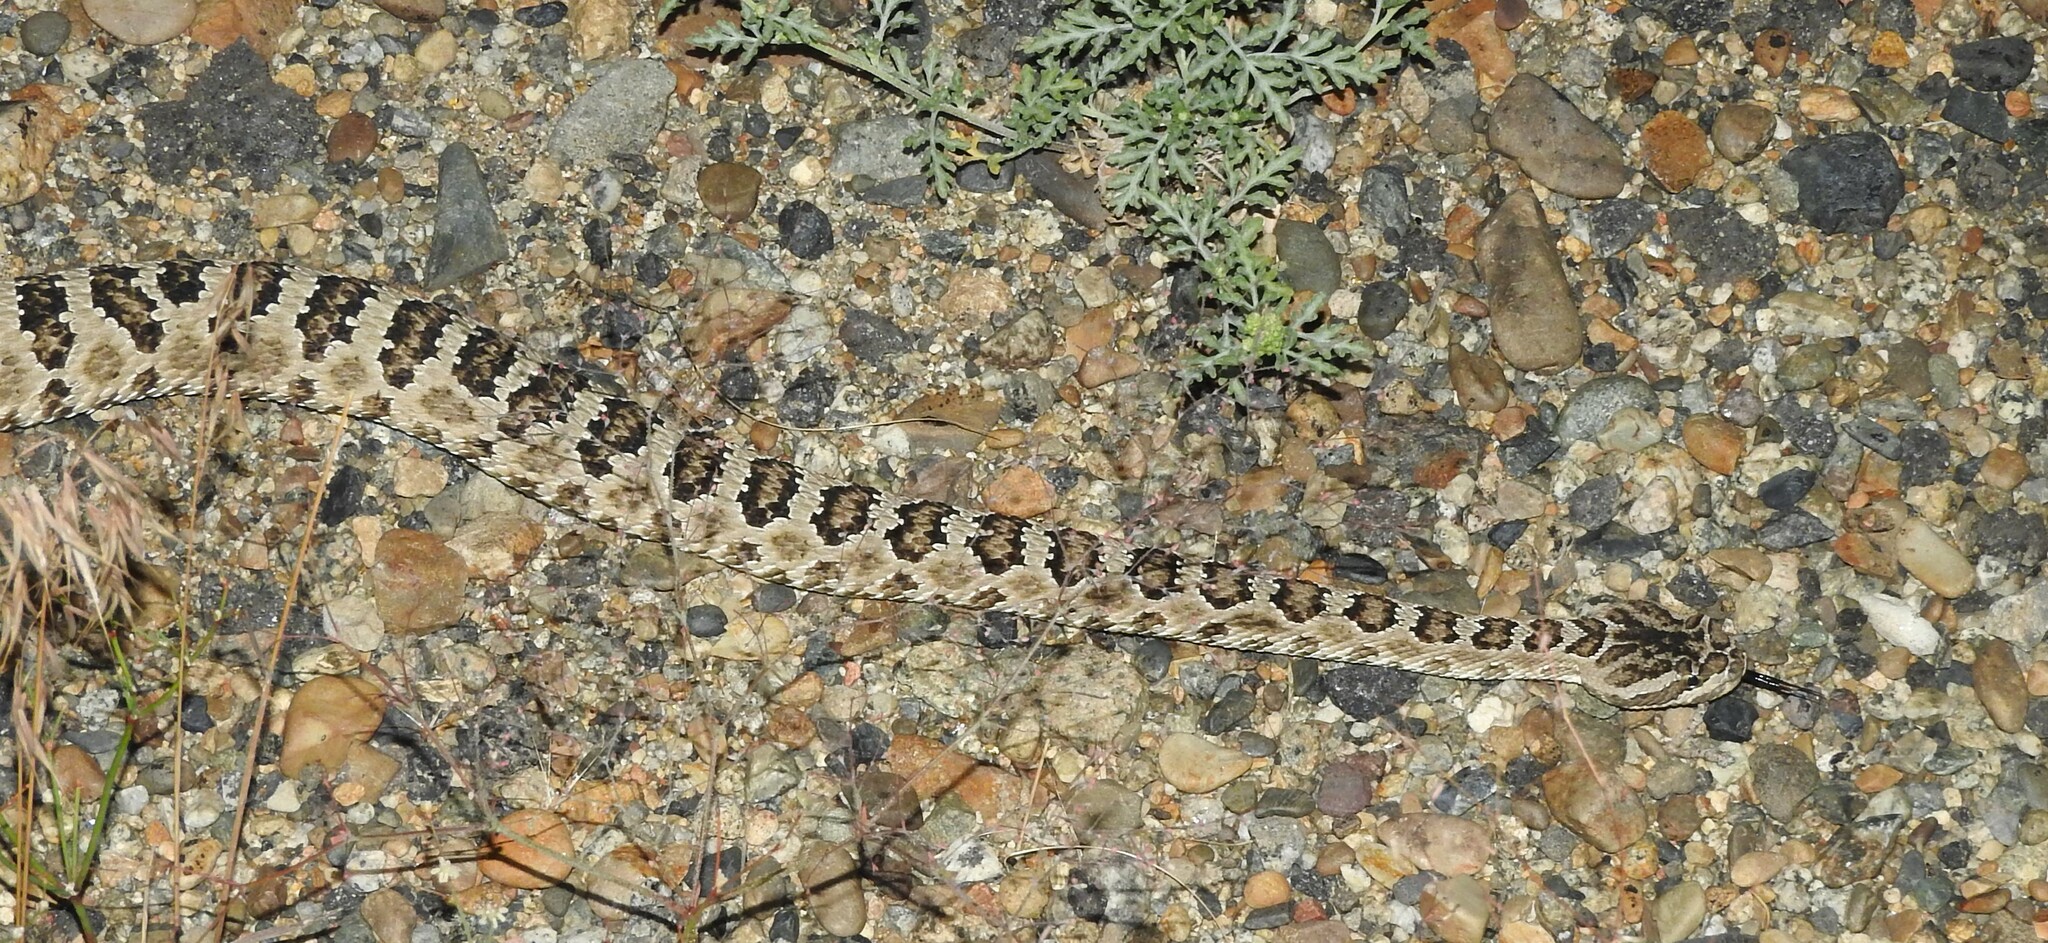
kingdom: Animalia
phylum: Chordata
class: Squamata
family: Viperidae
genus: Crotalus
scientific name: Crotalus oreganus
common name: Abyssus
